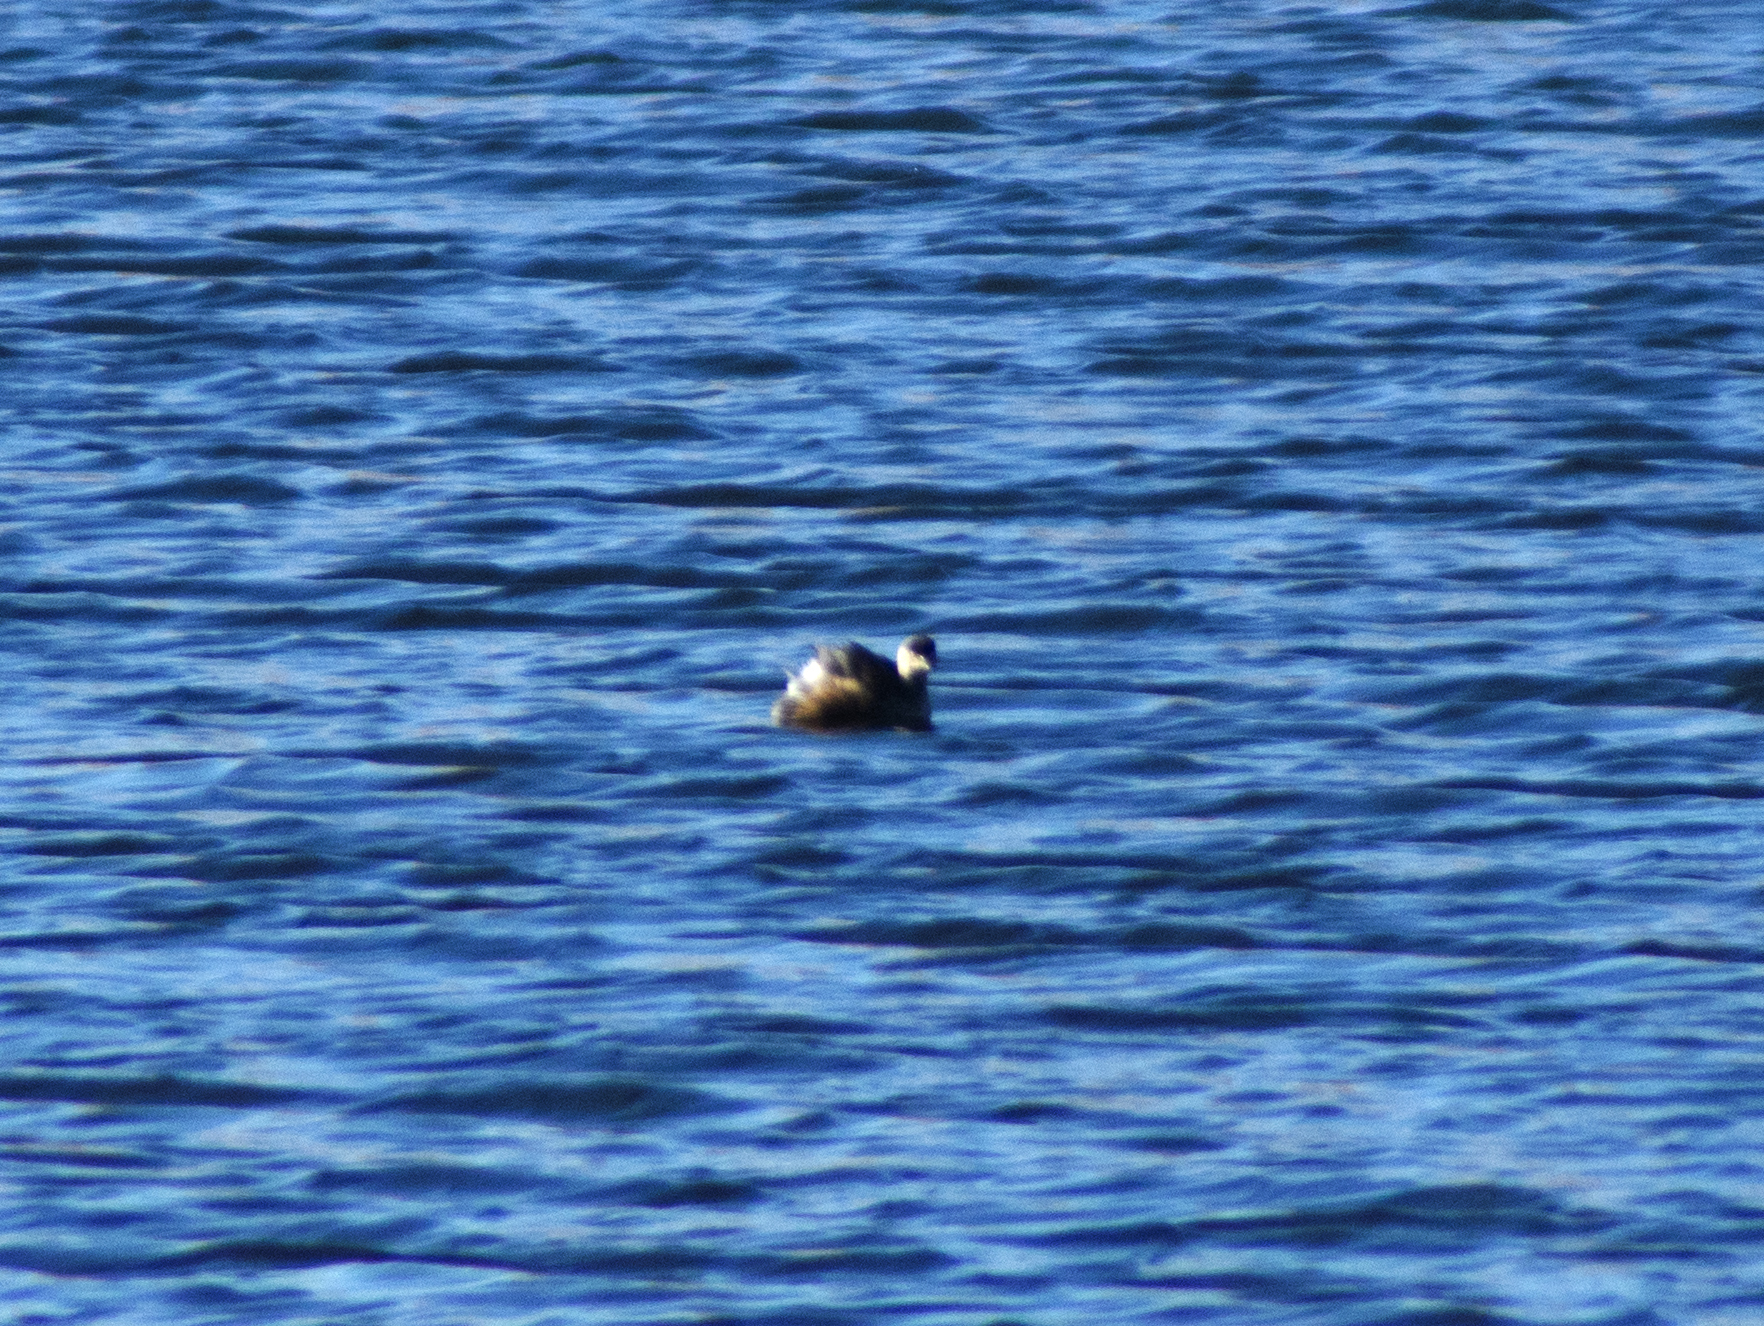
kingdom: Animalia
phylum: Chordata
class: Aves
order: Podicipediformes
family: Podicipedidae
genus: Tachybaptus
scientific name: Tachybaptus novaehollandiae
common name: Australasian grebe
